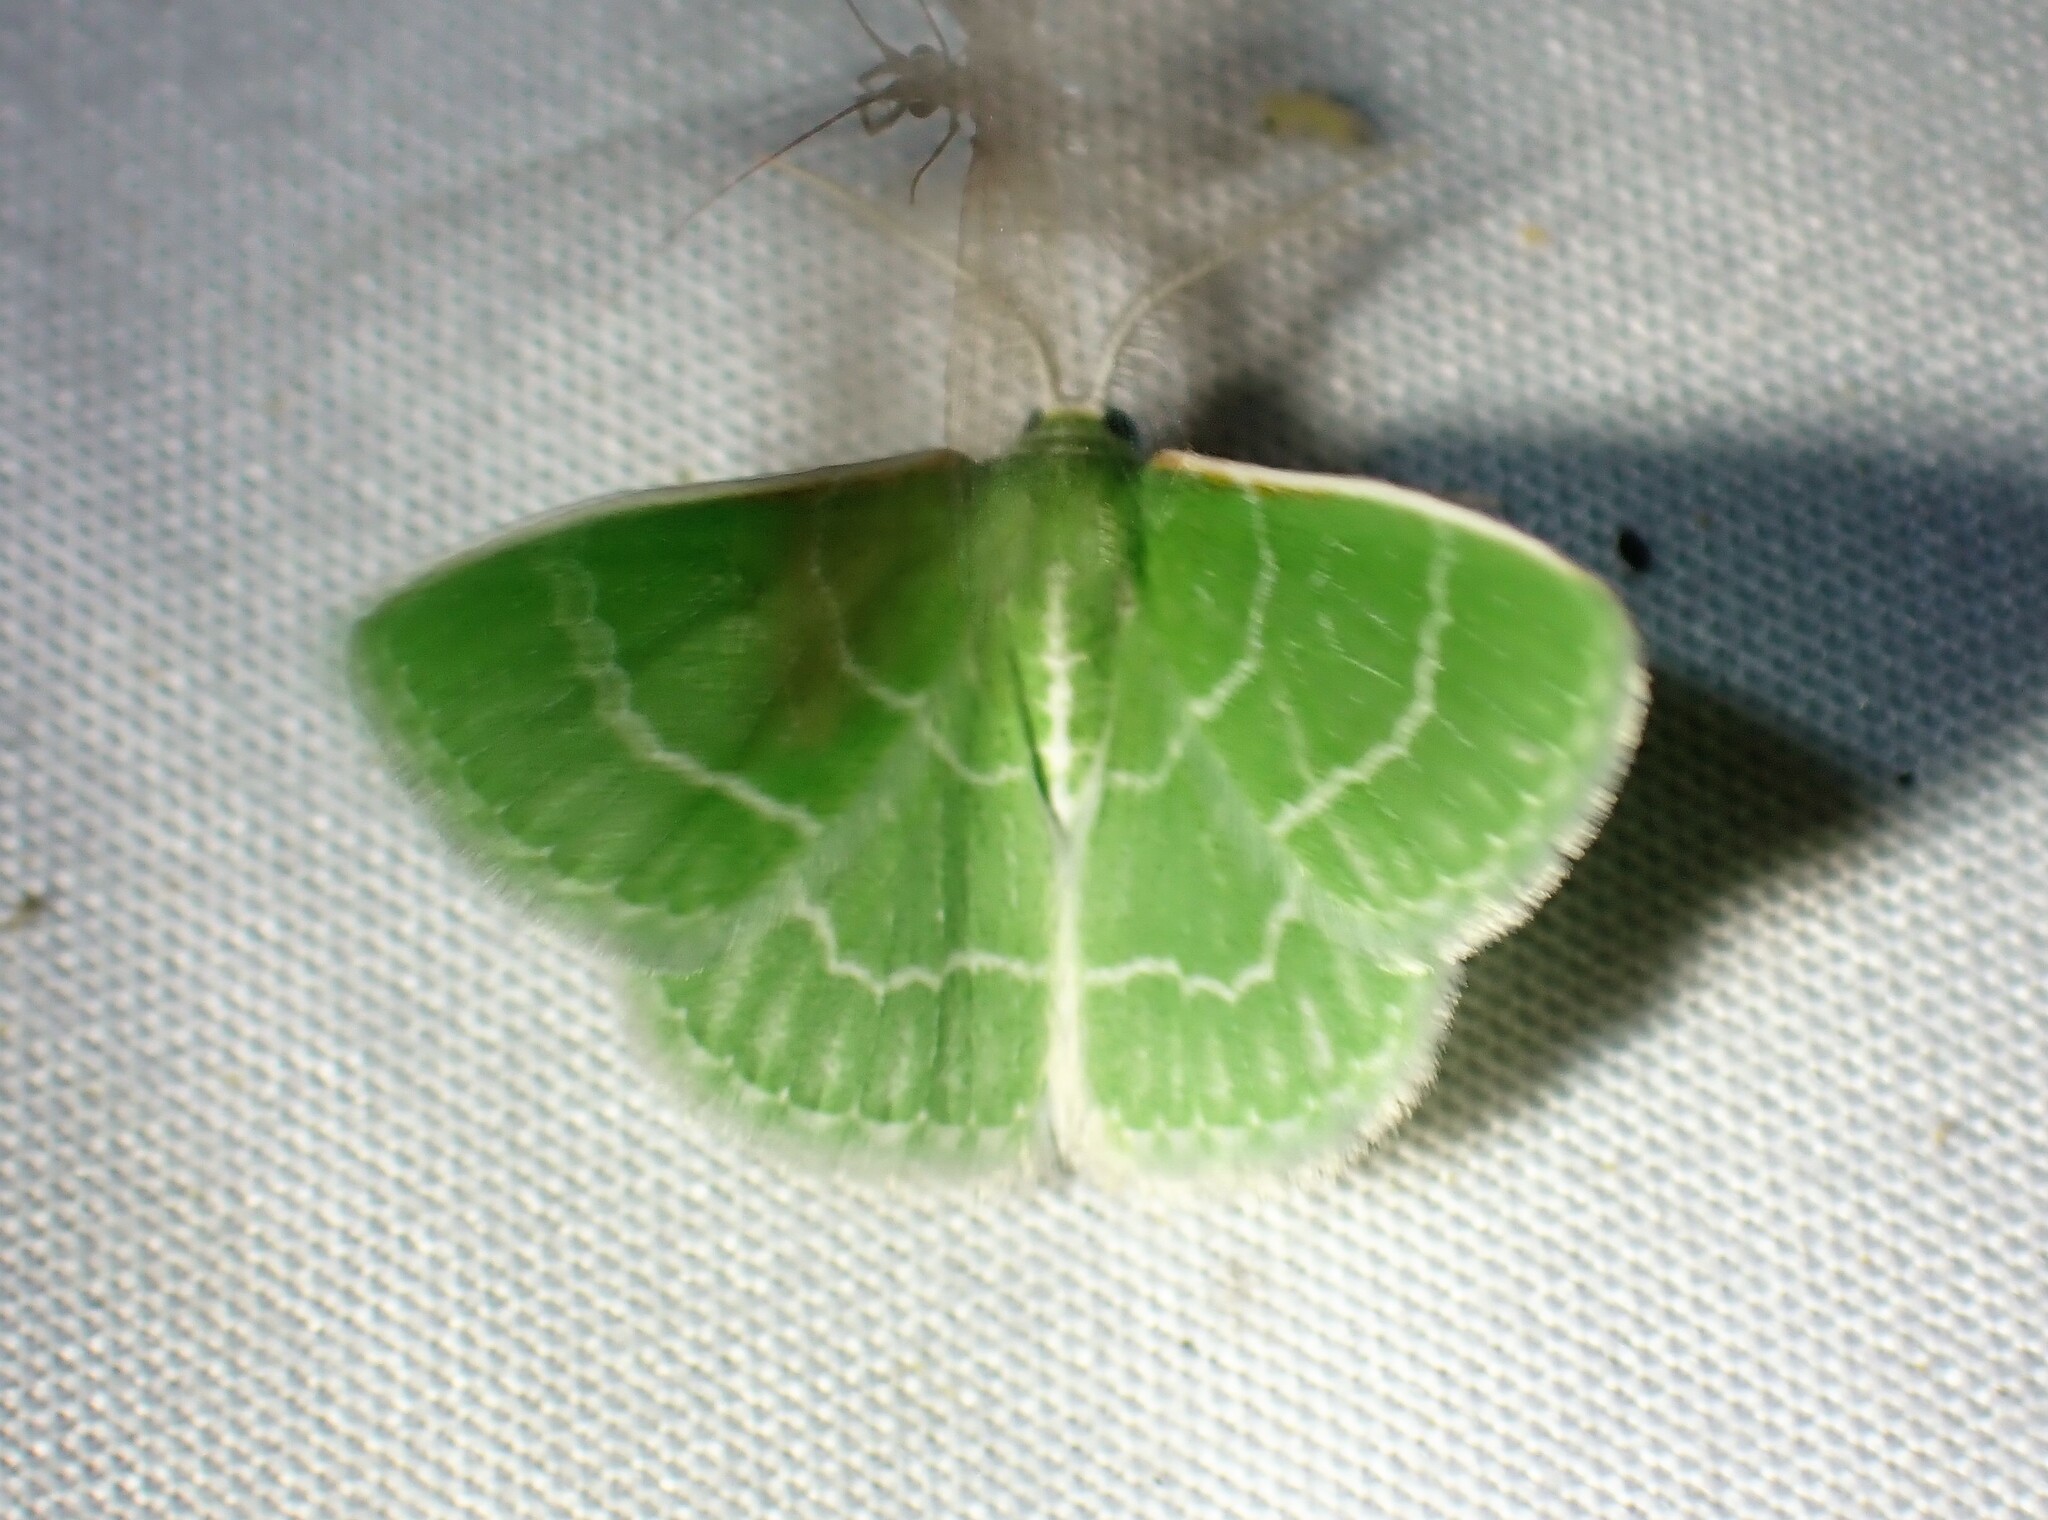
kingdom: Animalia
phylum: Arthropoda
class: Insecta
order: Lepidoptera
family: Geometridae
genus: Synchlora
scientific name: Synchlora aerata
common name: Wavy-lined emerald
